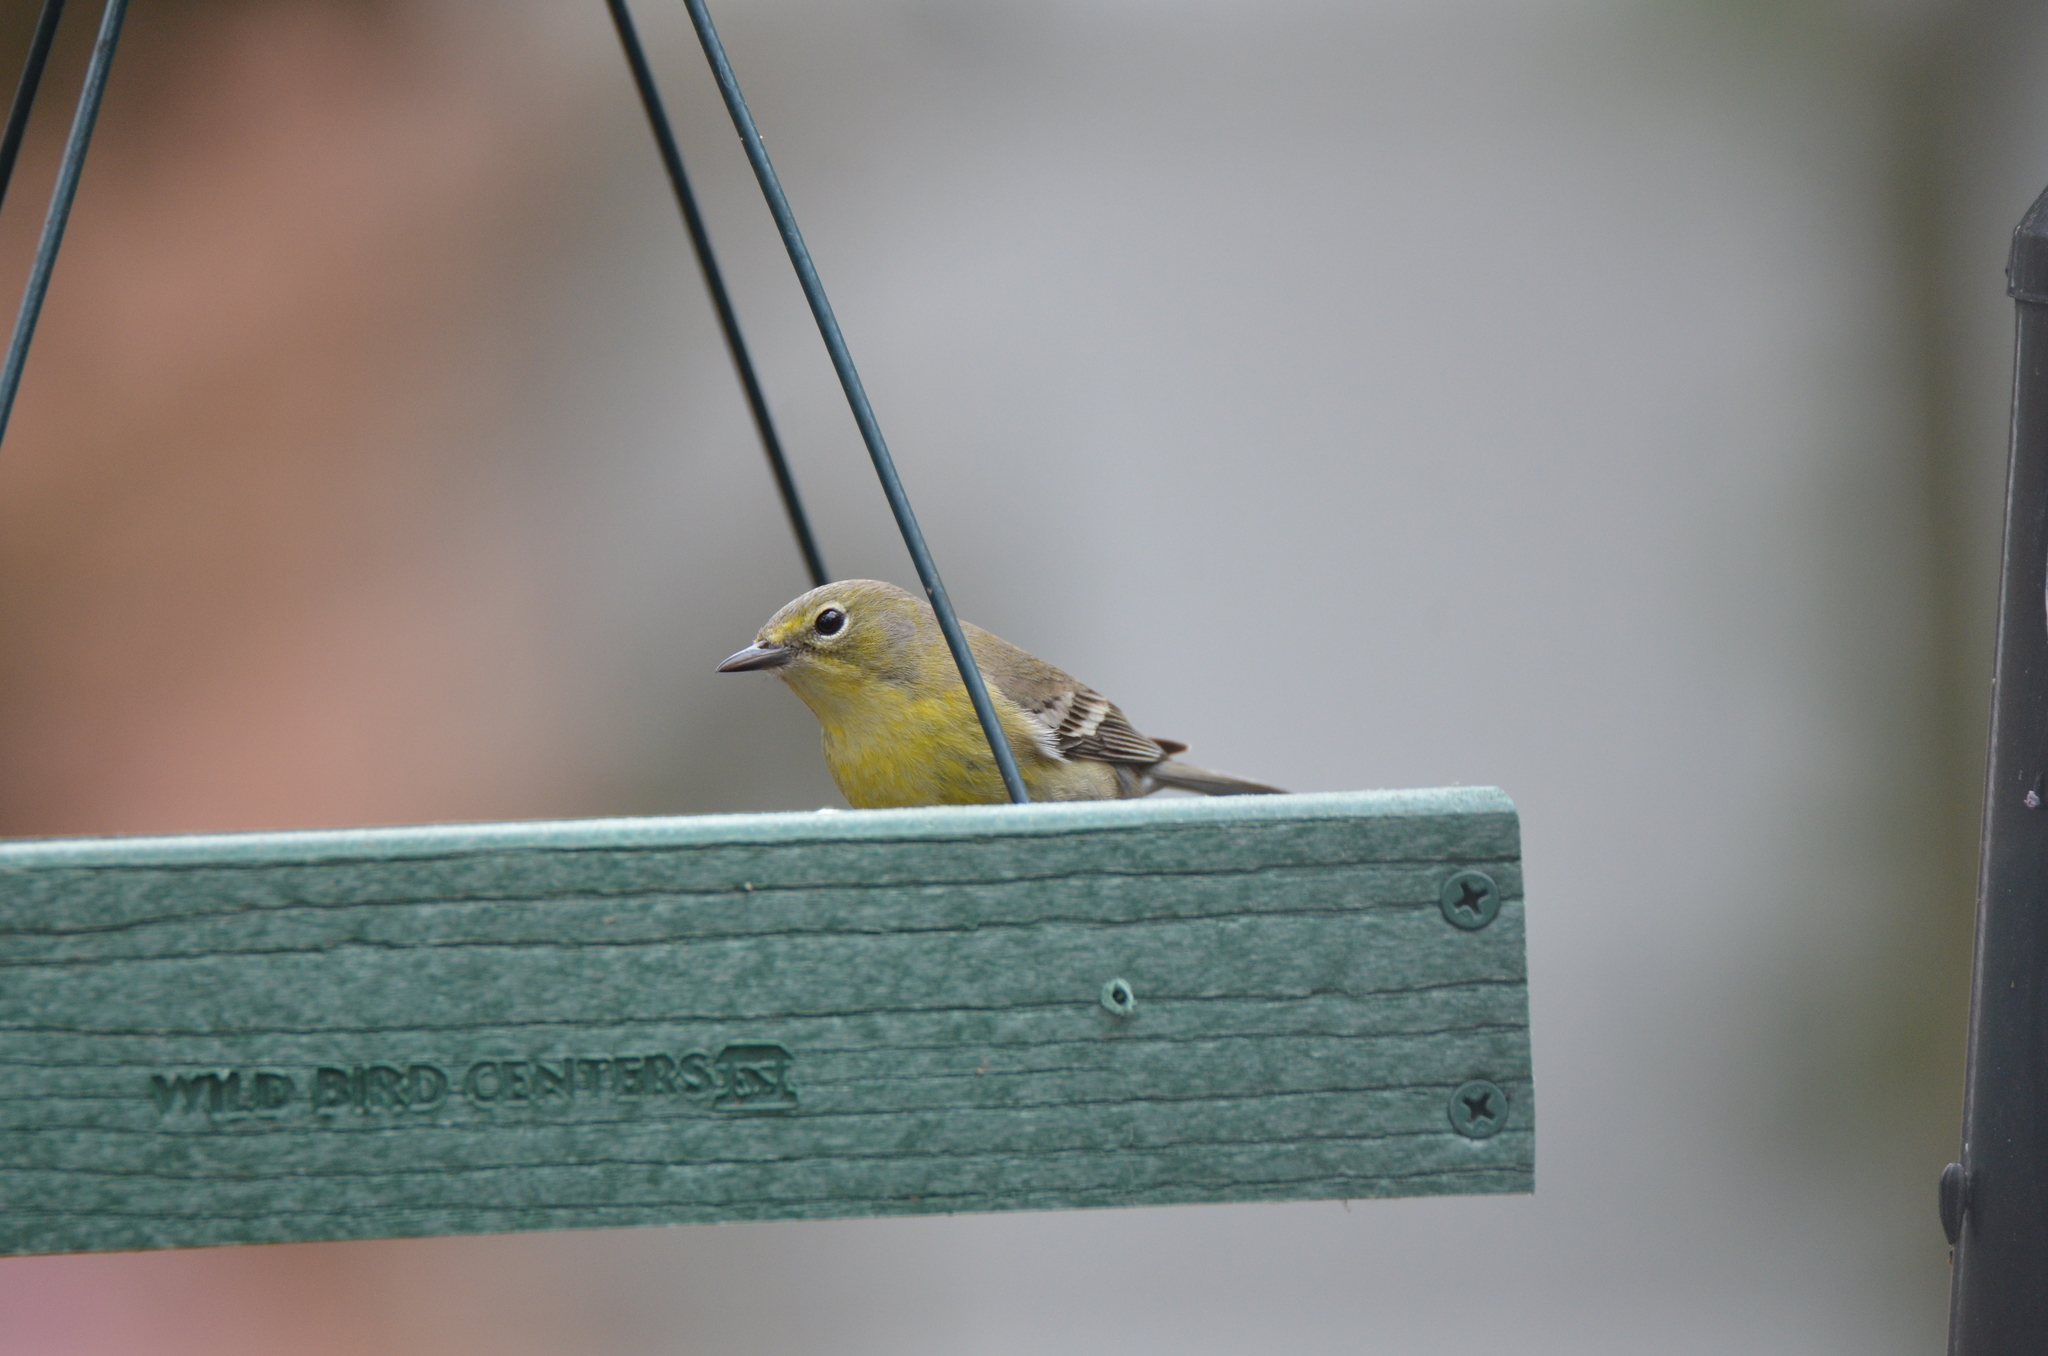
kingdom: Animalia
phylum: Chordata
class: Aves
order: Passeriformes
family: Parulidae
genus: Setophaga
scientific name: Setophaga pinus
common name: Pine warbler
